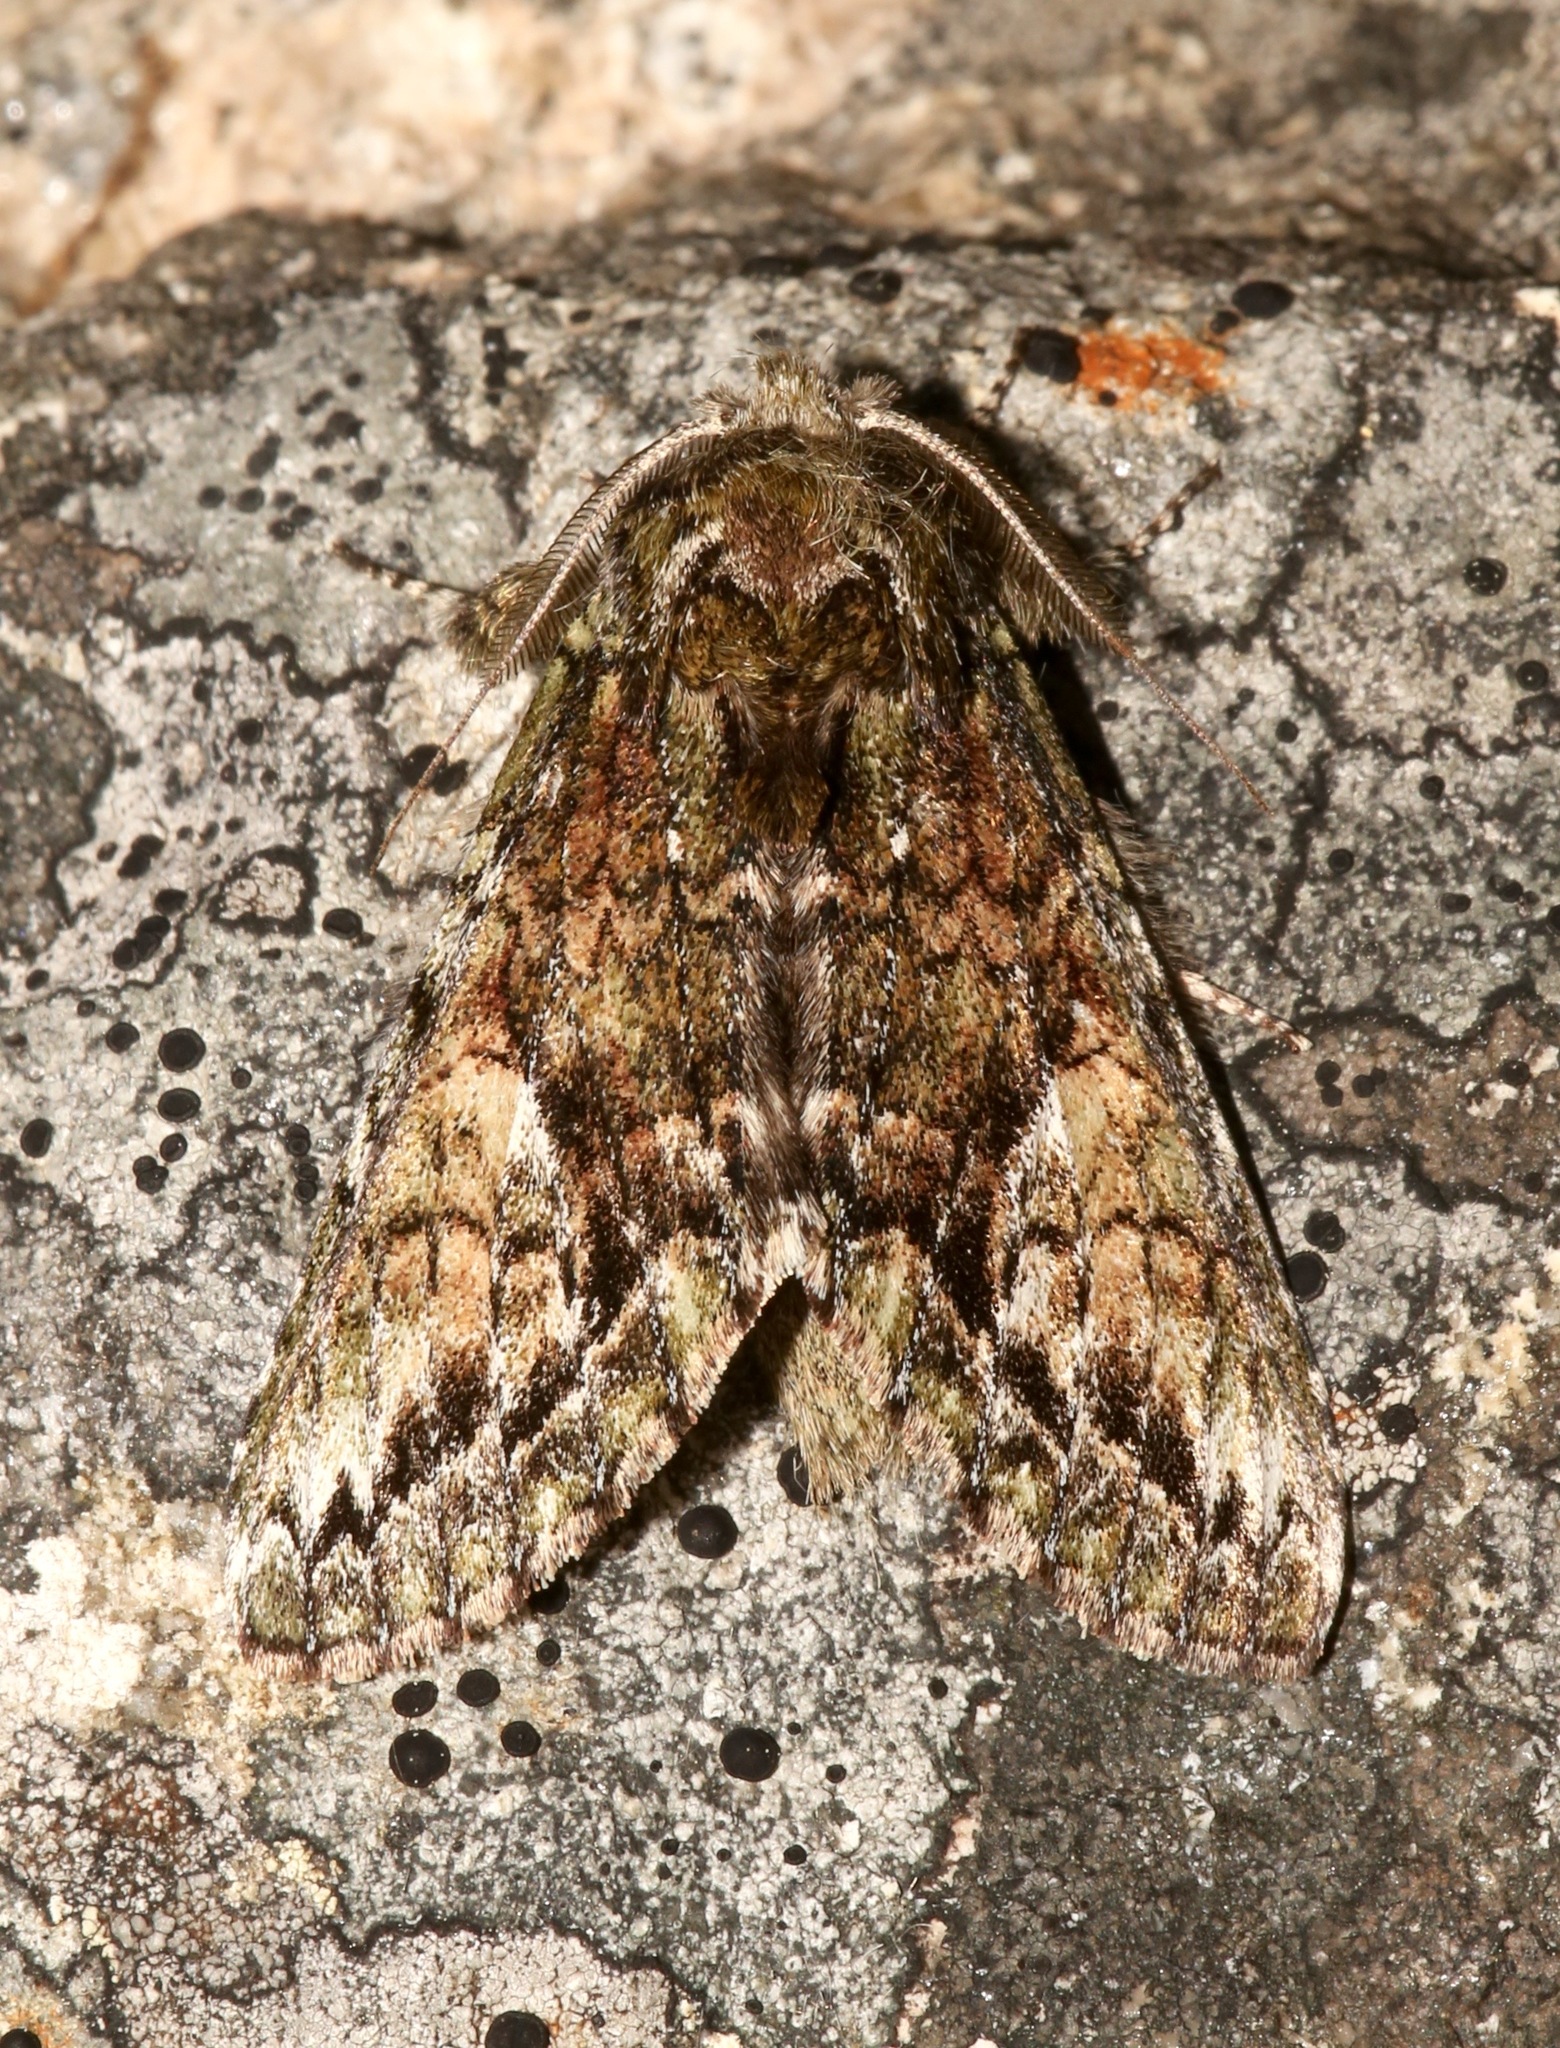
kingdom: Animalia
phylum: Arthropoda
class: Insecta
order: Lepidoptera
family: Notodontidae
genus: Heterocampa
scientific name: Heterocampa
